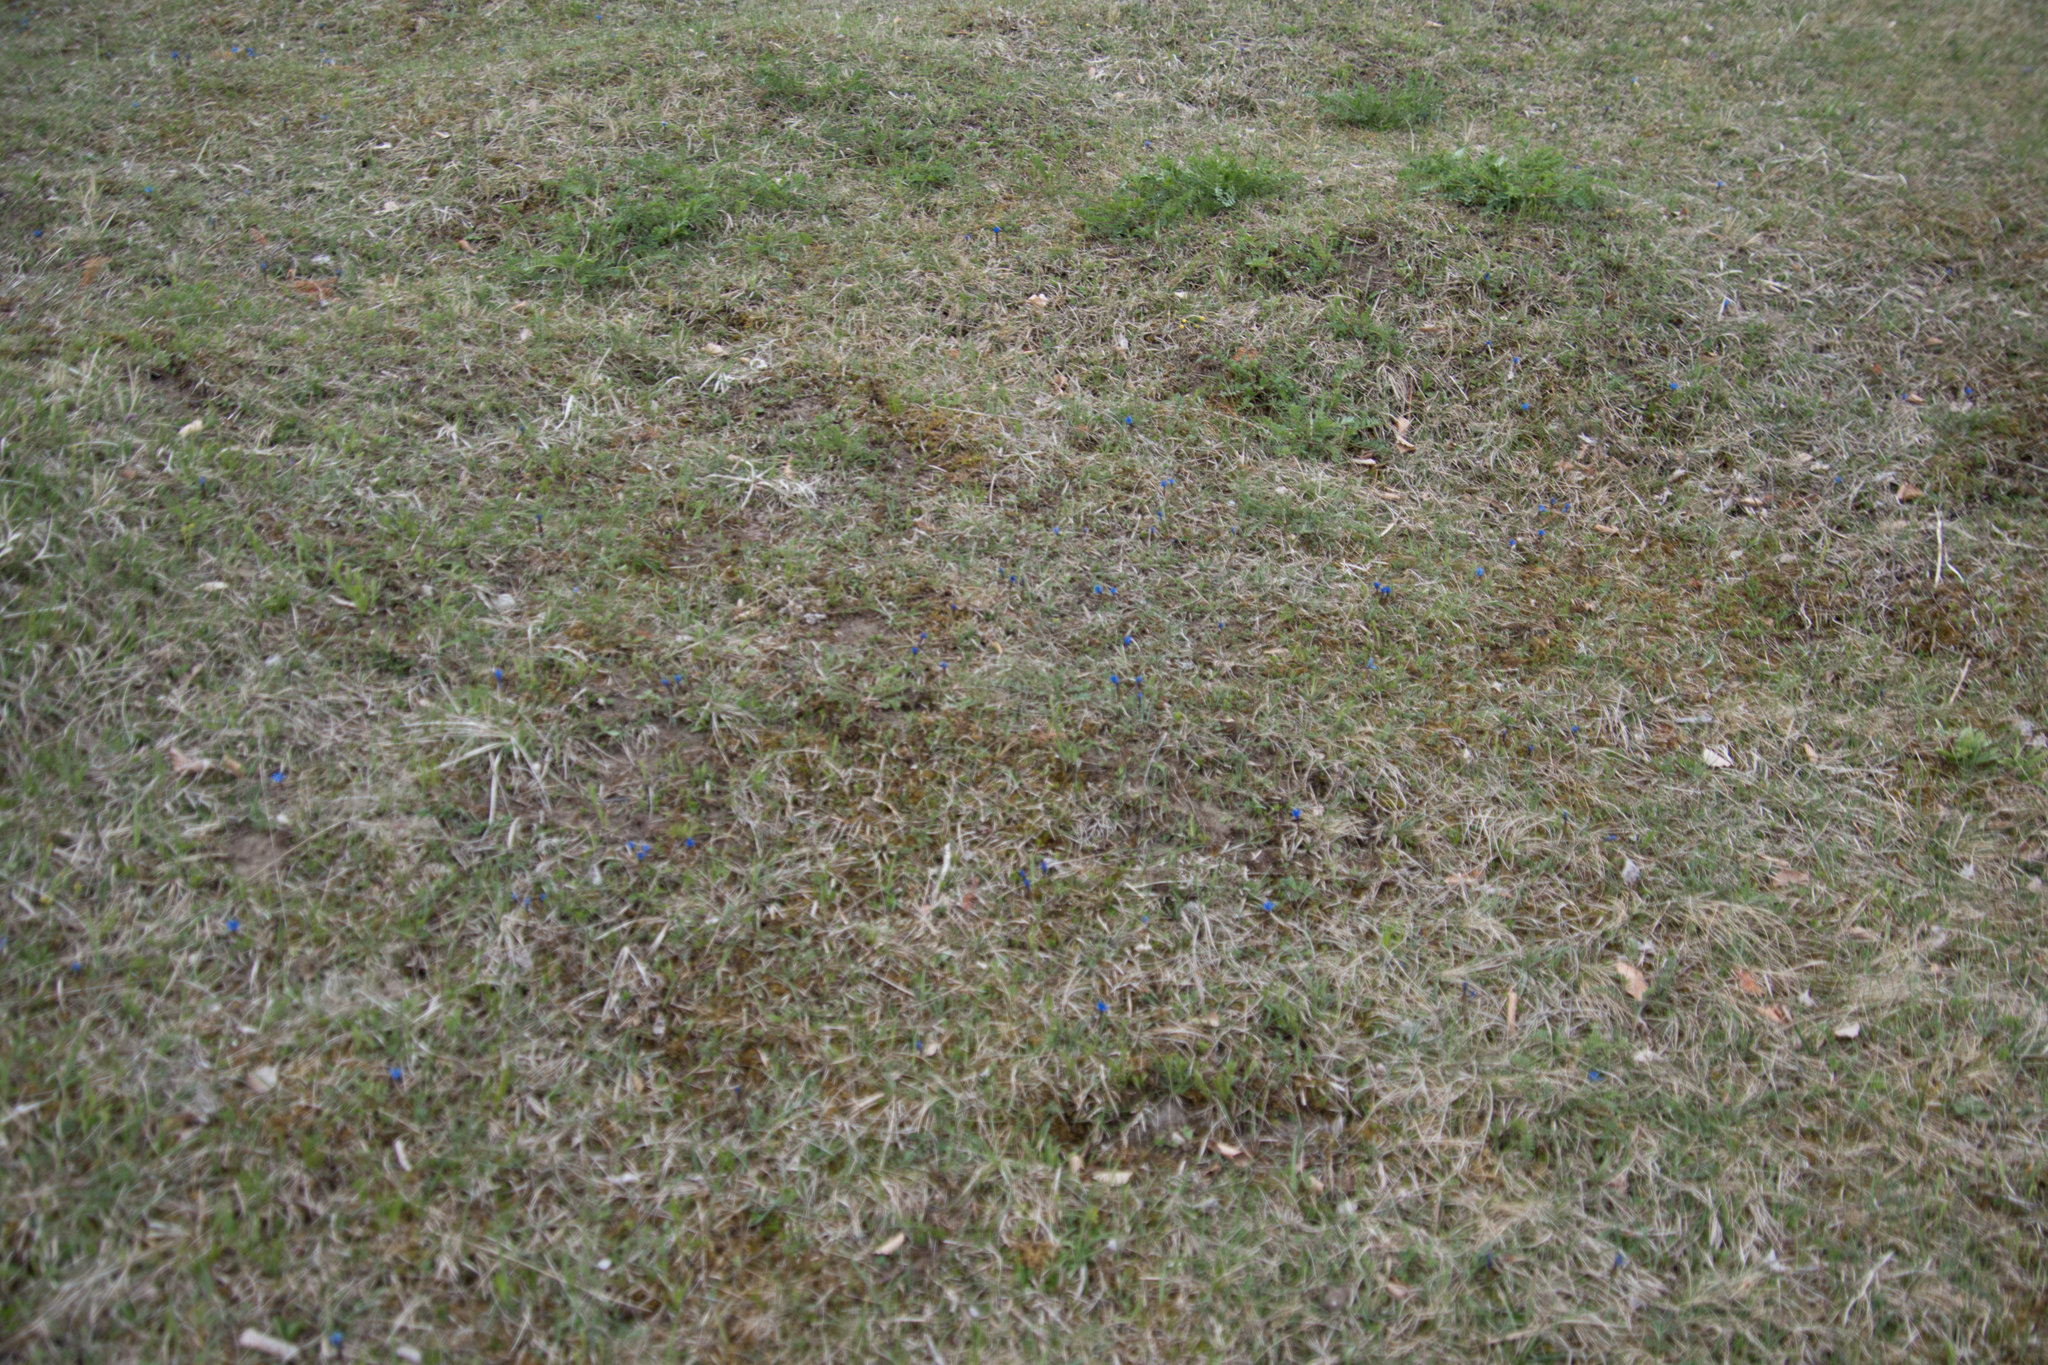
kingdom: Plantae
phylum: Tracheophyta
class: Magnoliopsida
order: Gentianales
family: Gentianaceae
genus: Gentiana
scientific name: Gentiana verna
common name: Spring gentian
